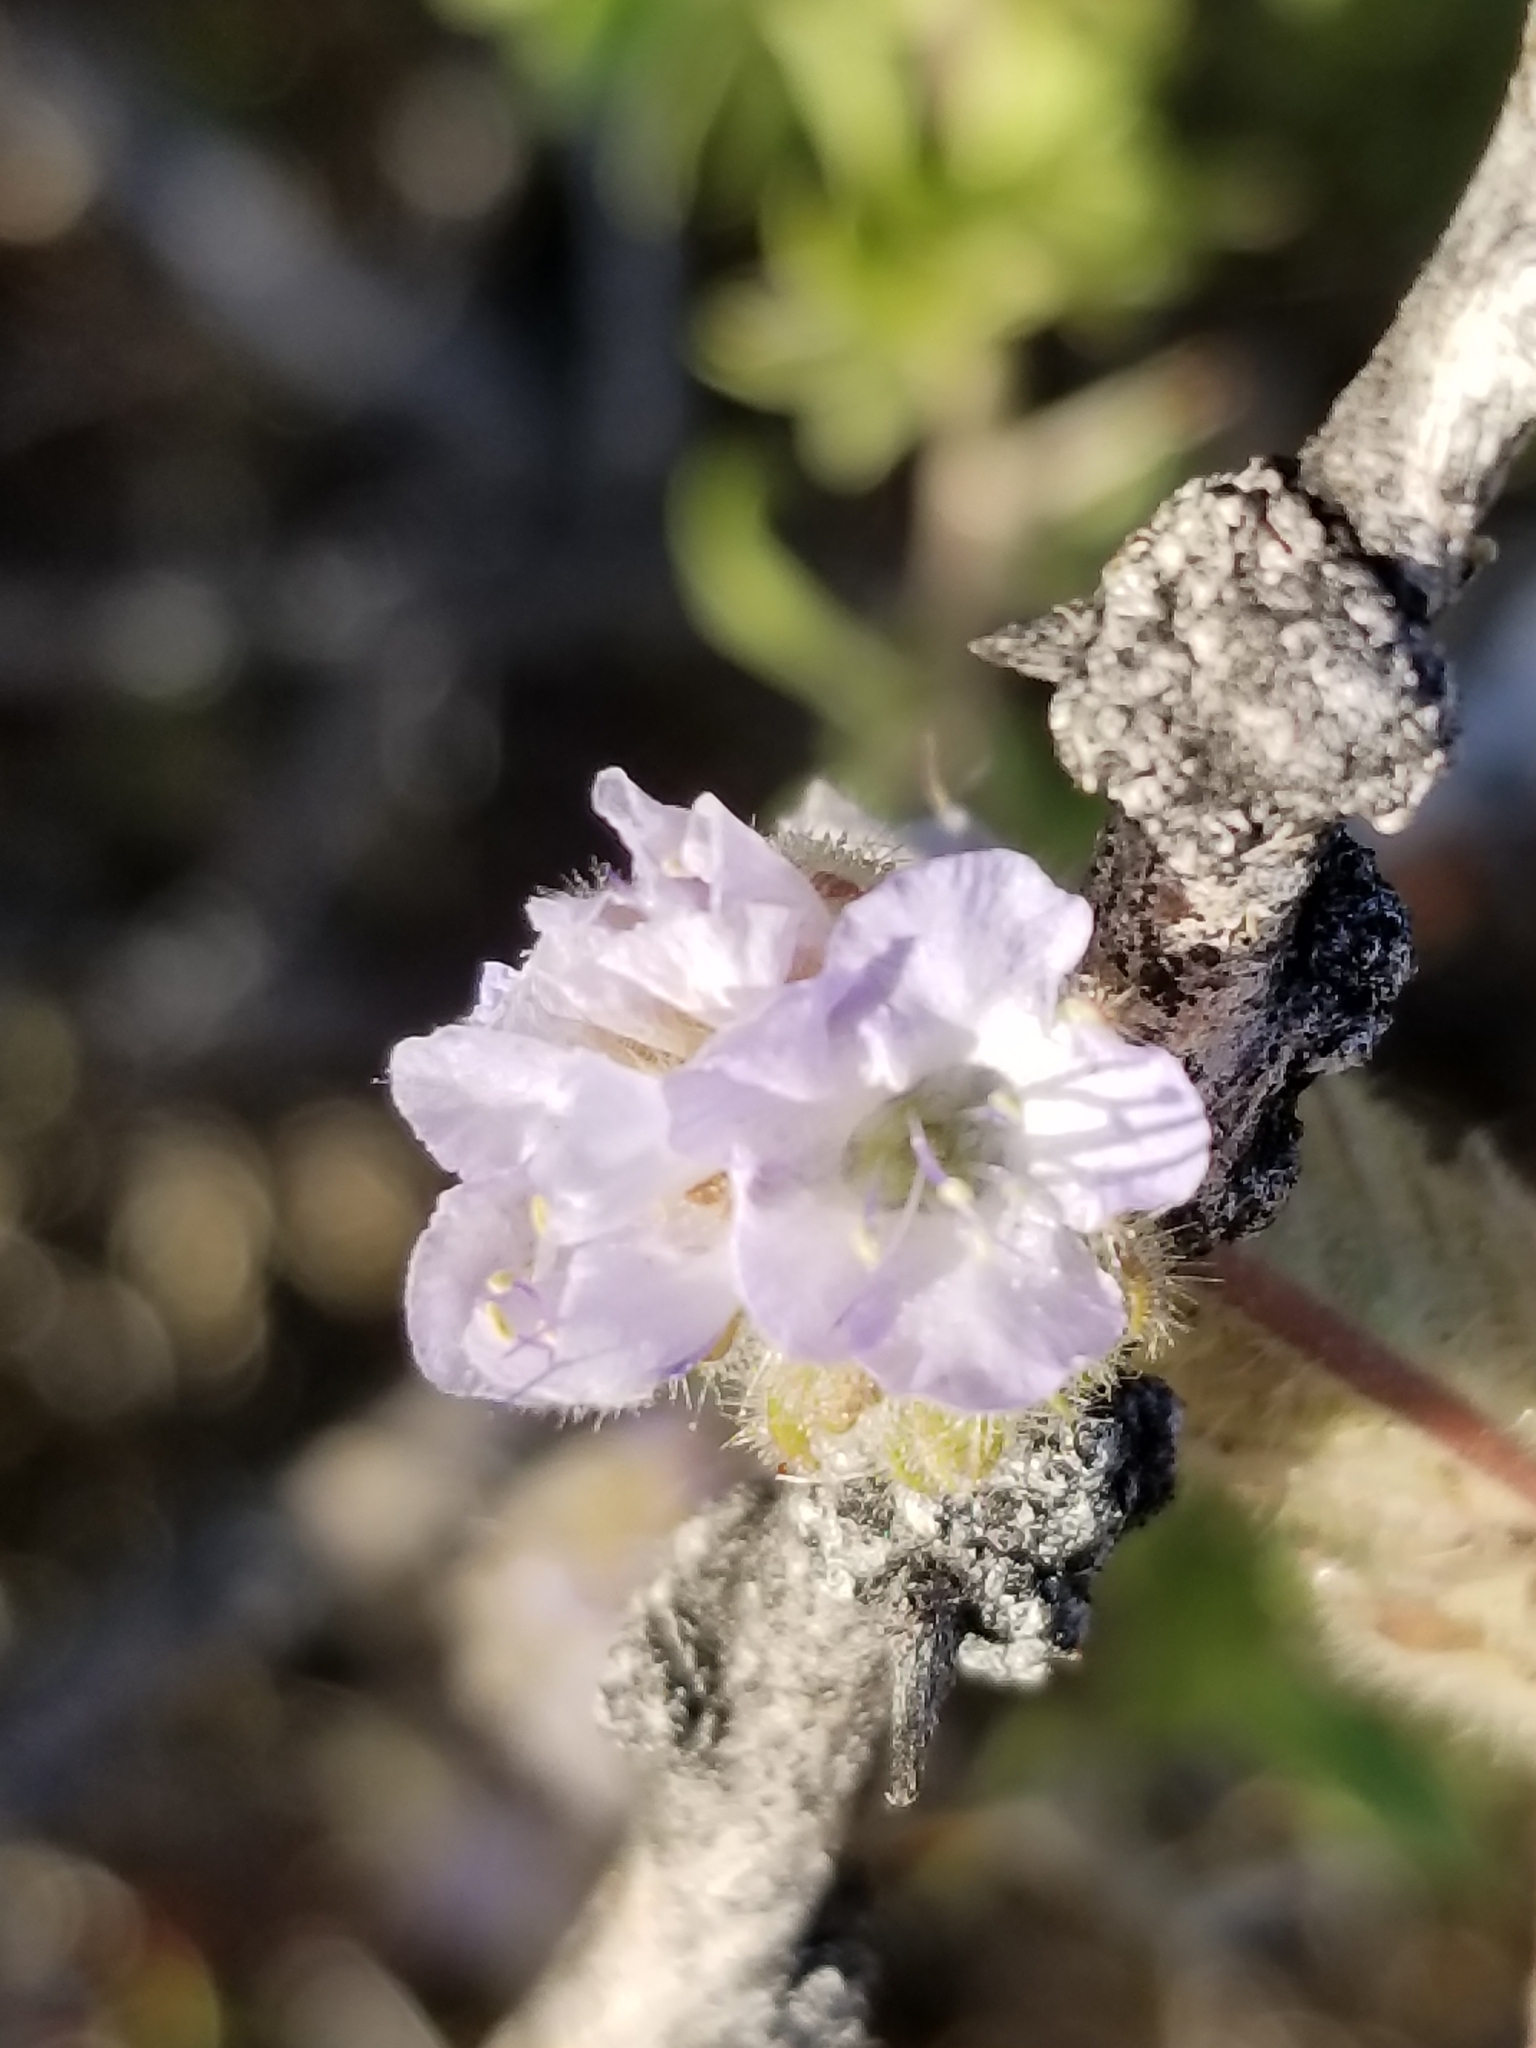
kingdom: Plantae
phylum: Tracheophyta
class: Magnoliopsida
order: Boraginales
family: Hydrophyllaceae
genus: Phacelia
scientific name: Phacelia distans
